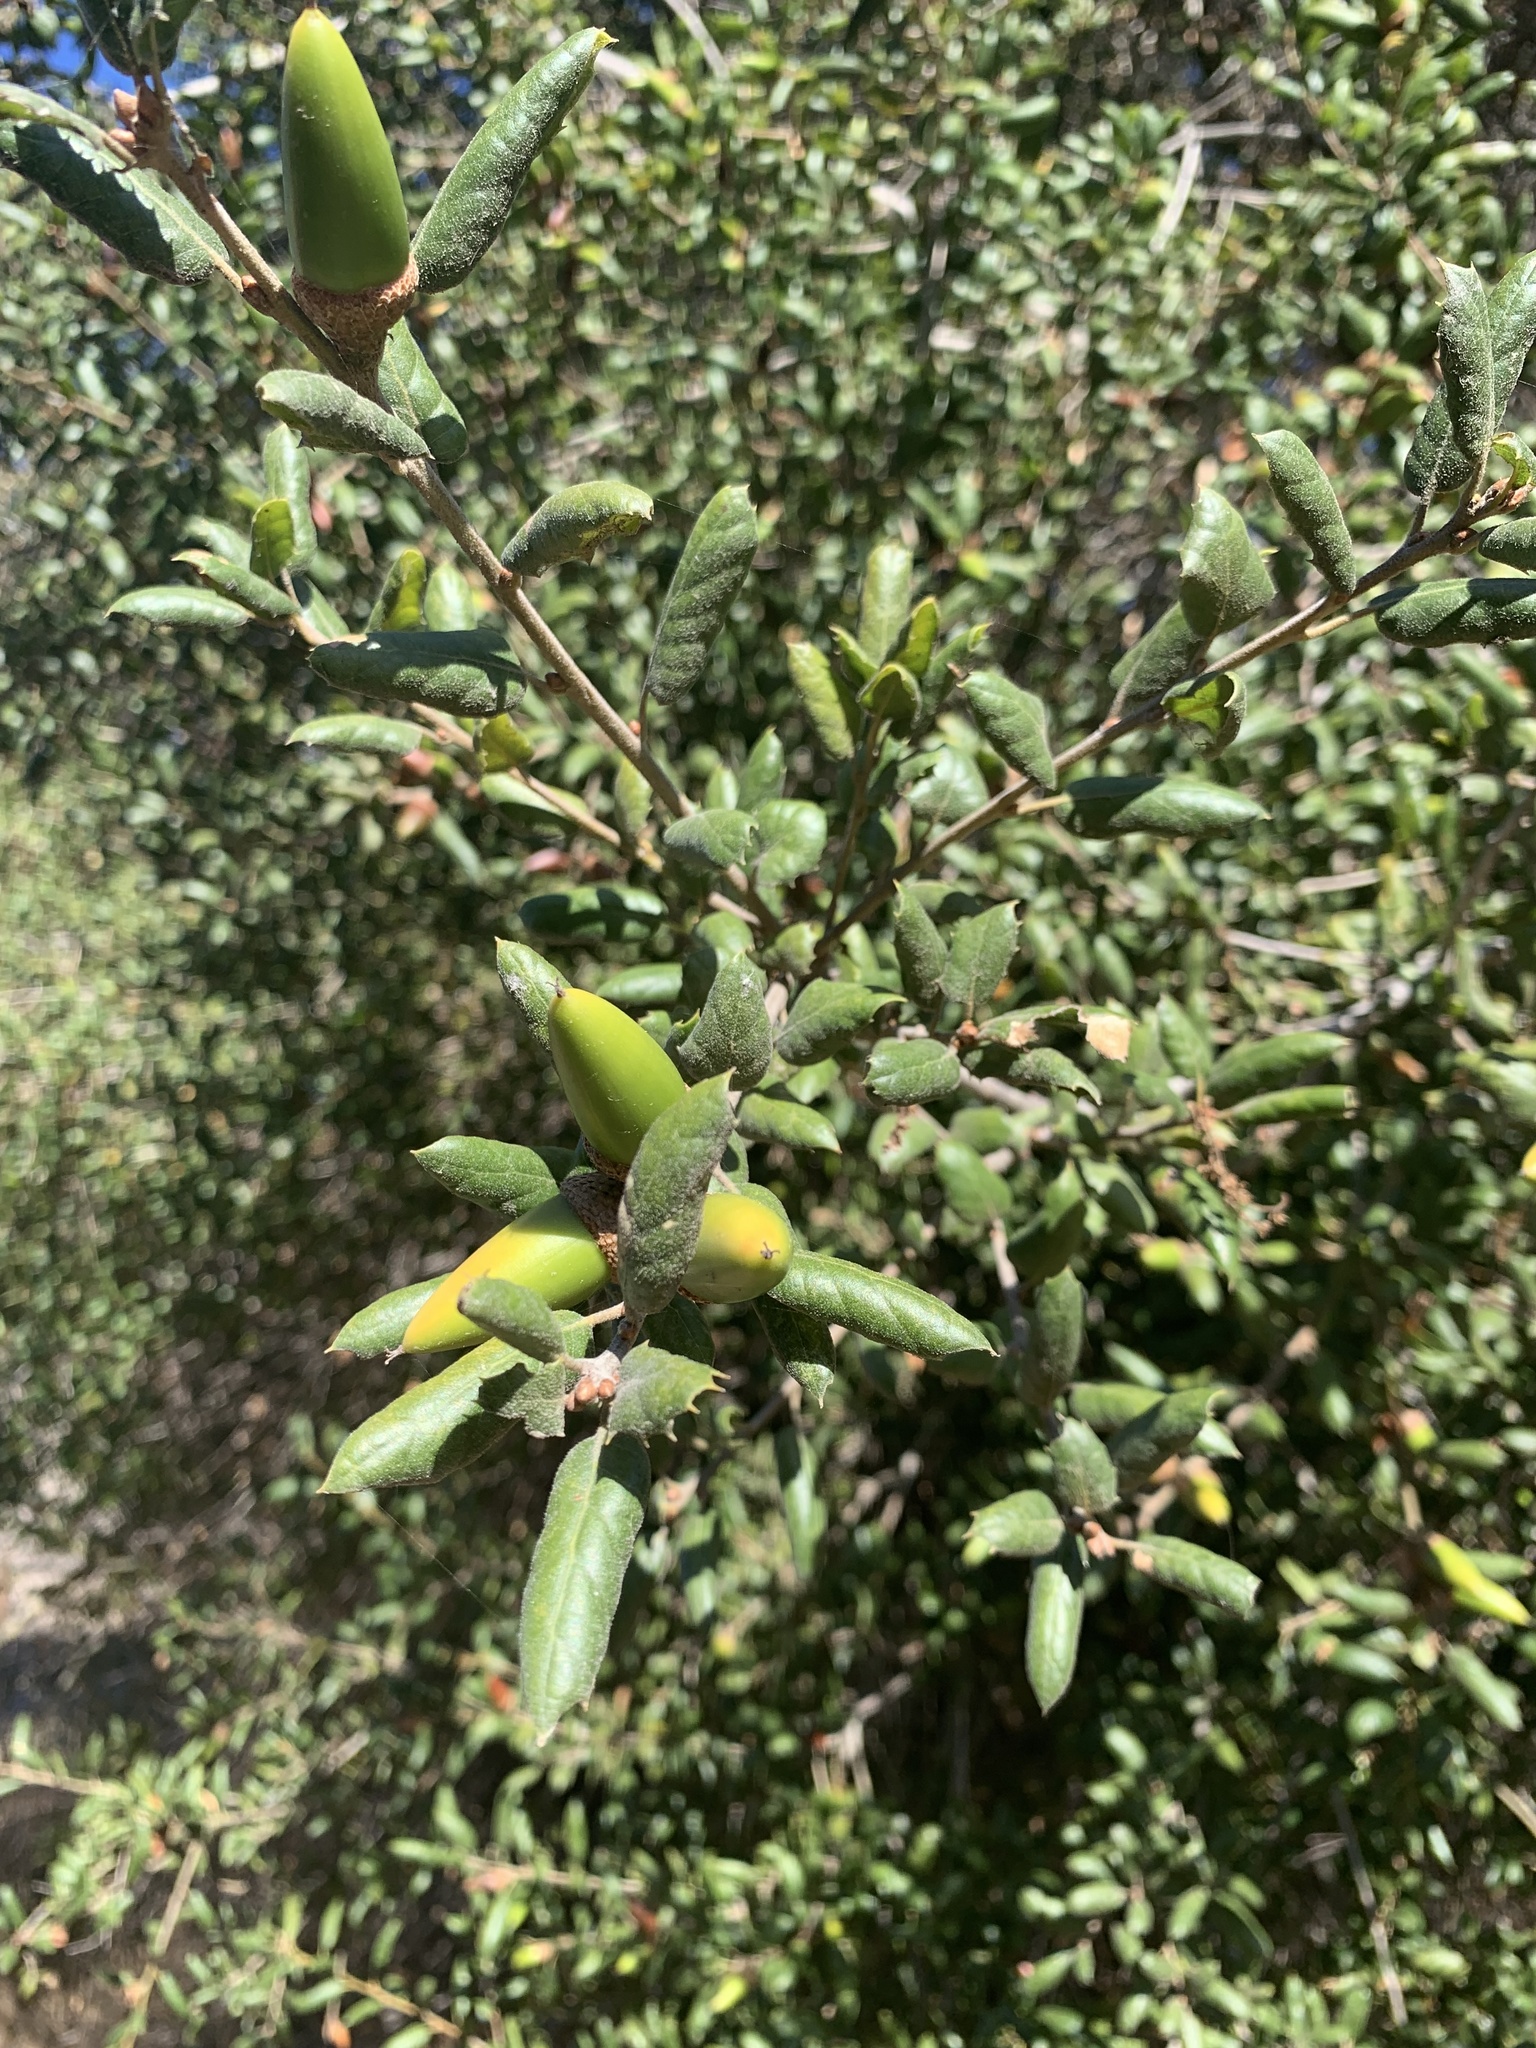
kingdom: Plantae
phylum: Tracheophyta
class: Magnoliopsida
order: Fagales
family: Fagaceae
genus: Quercus
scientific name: Quercus agrifolia
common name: California live oak
